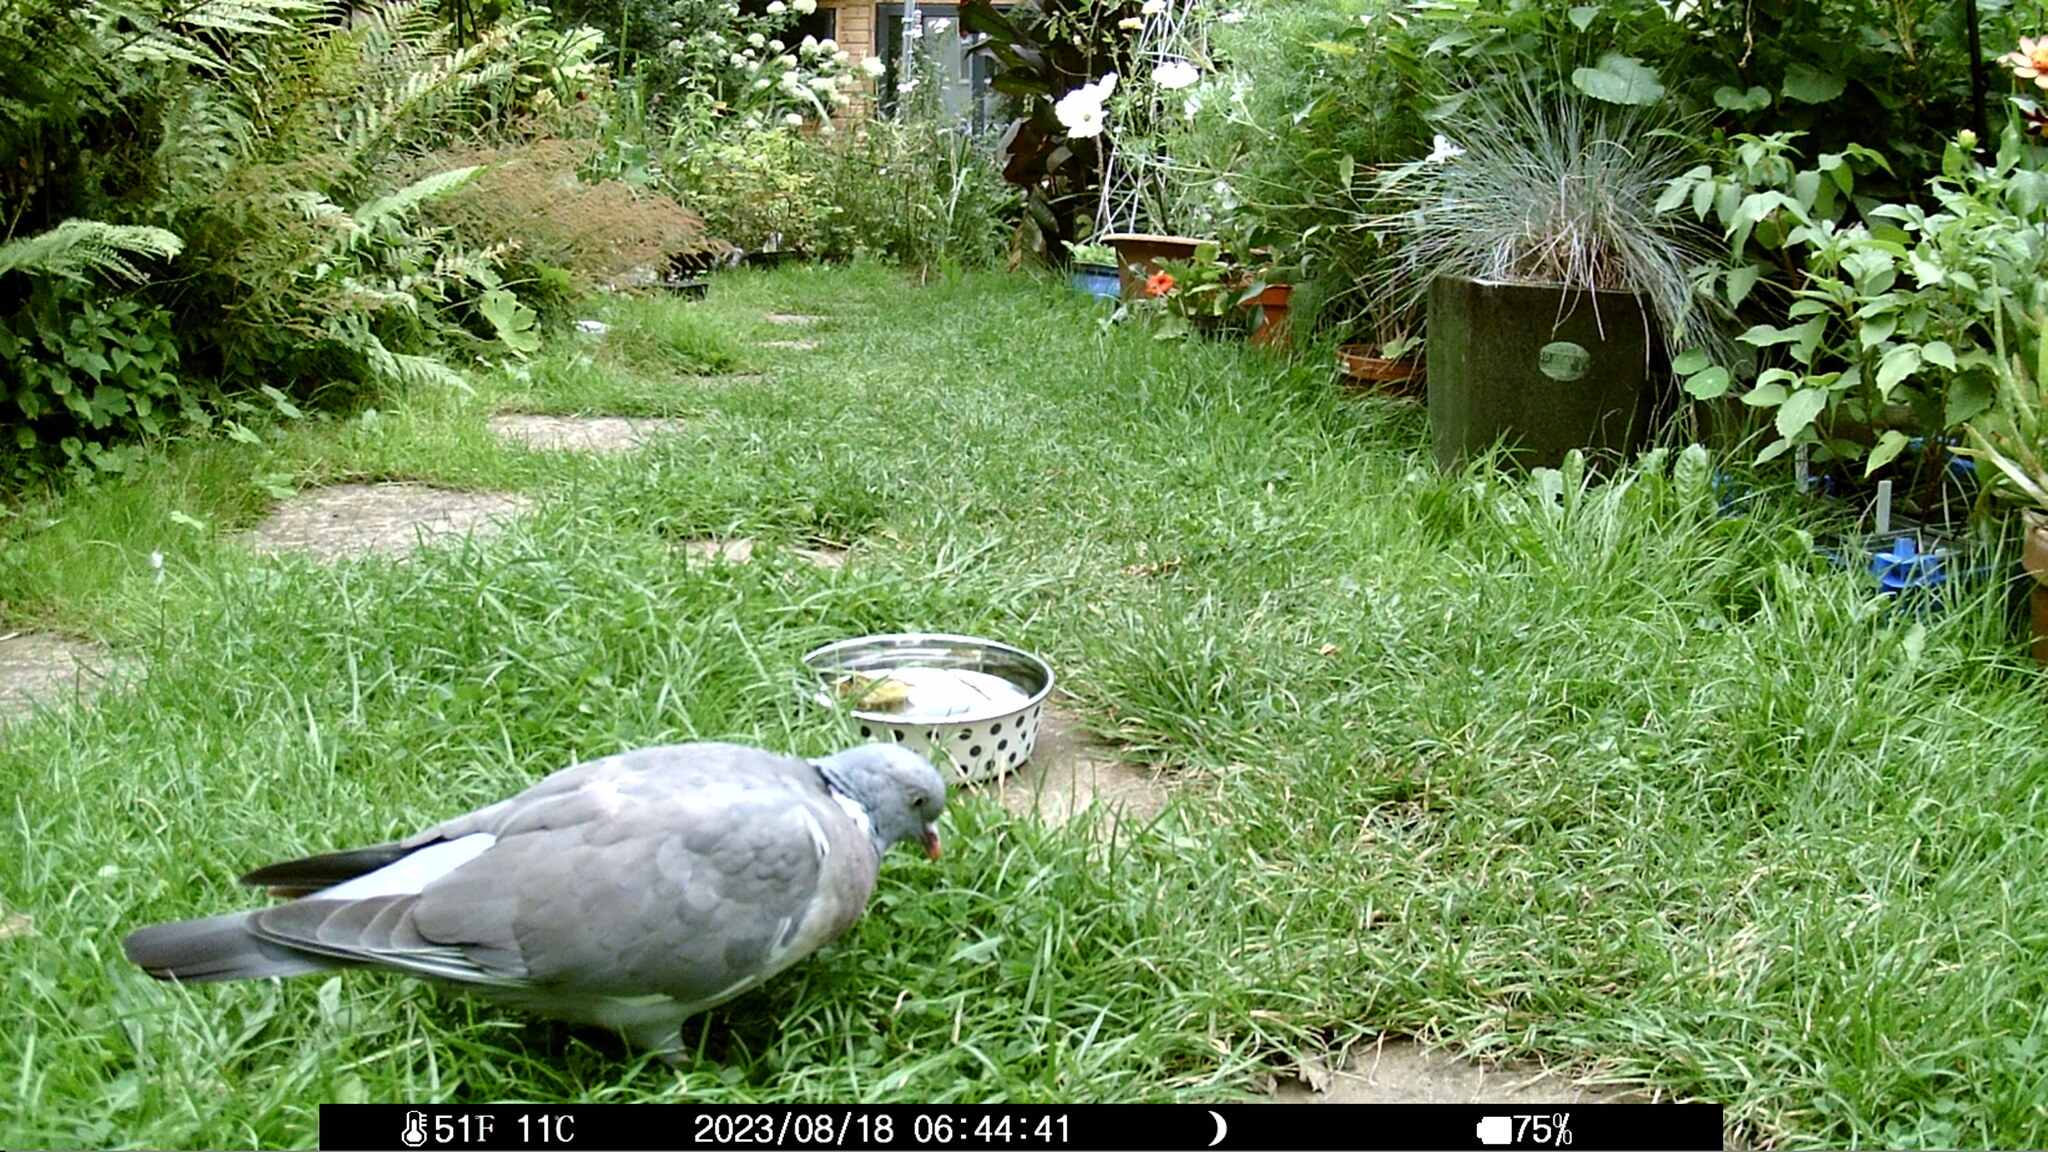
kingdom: Animalia
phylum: Chordata
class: Aves
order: Columbiformes
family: Columbidae
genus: Columba
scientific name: Columba palumbus
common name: Common wood pigeon
